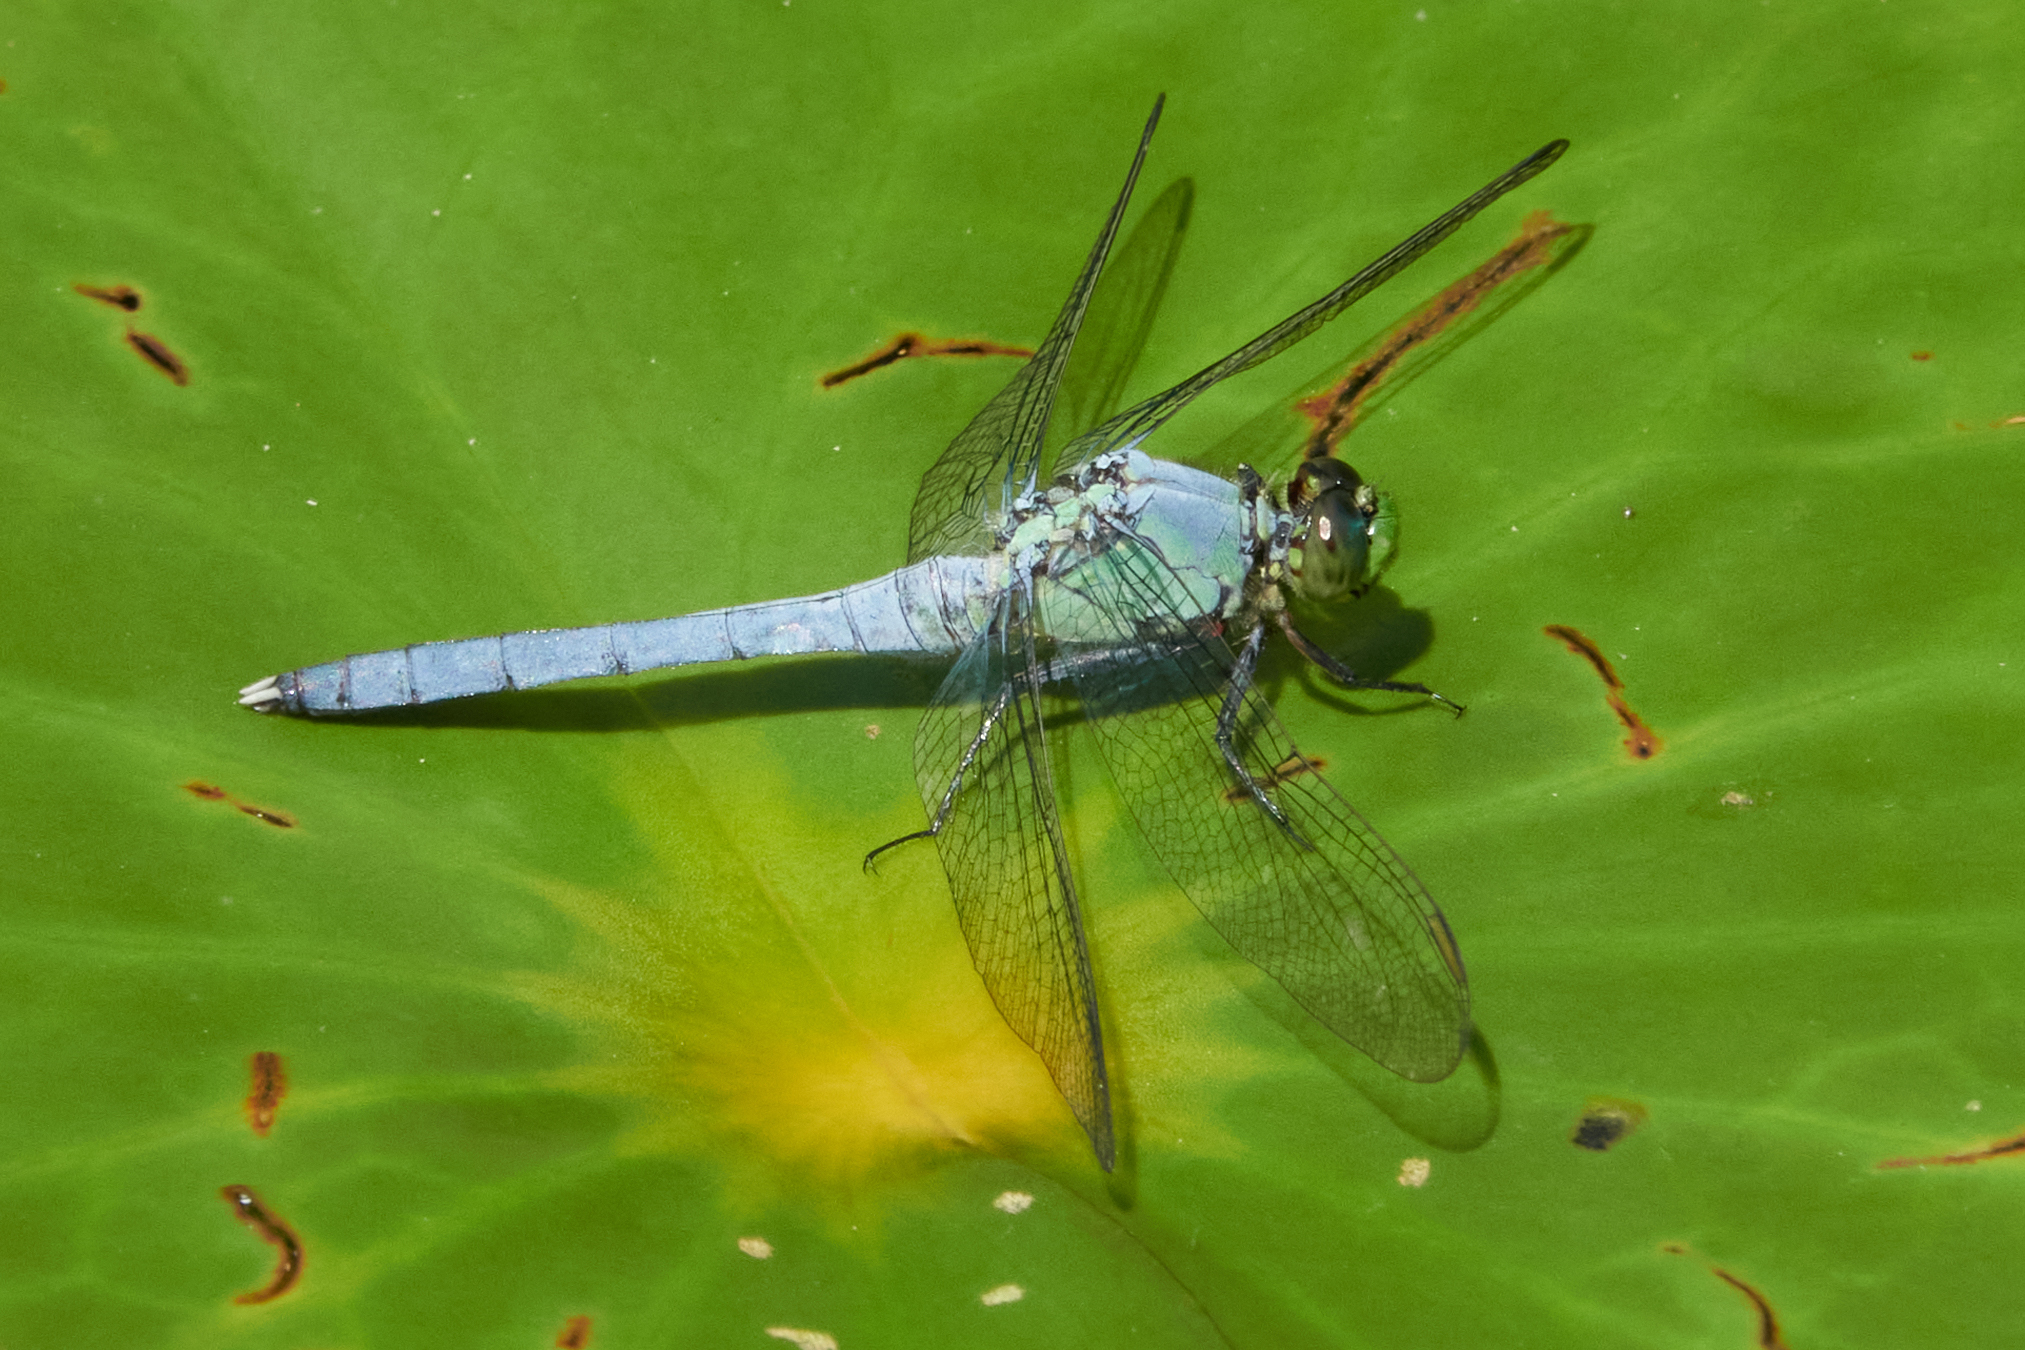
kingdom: Animalia
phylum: Arthropoda
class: Insecta
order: Odonata
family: Libellulidae
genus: Erythemis
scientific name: Erythemis simplicicollis
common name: Eastern pondhawk
